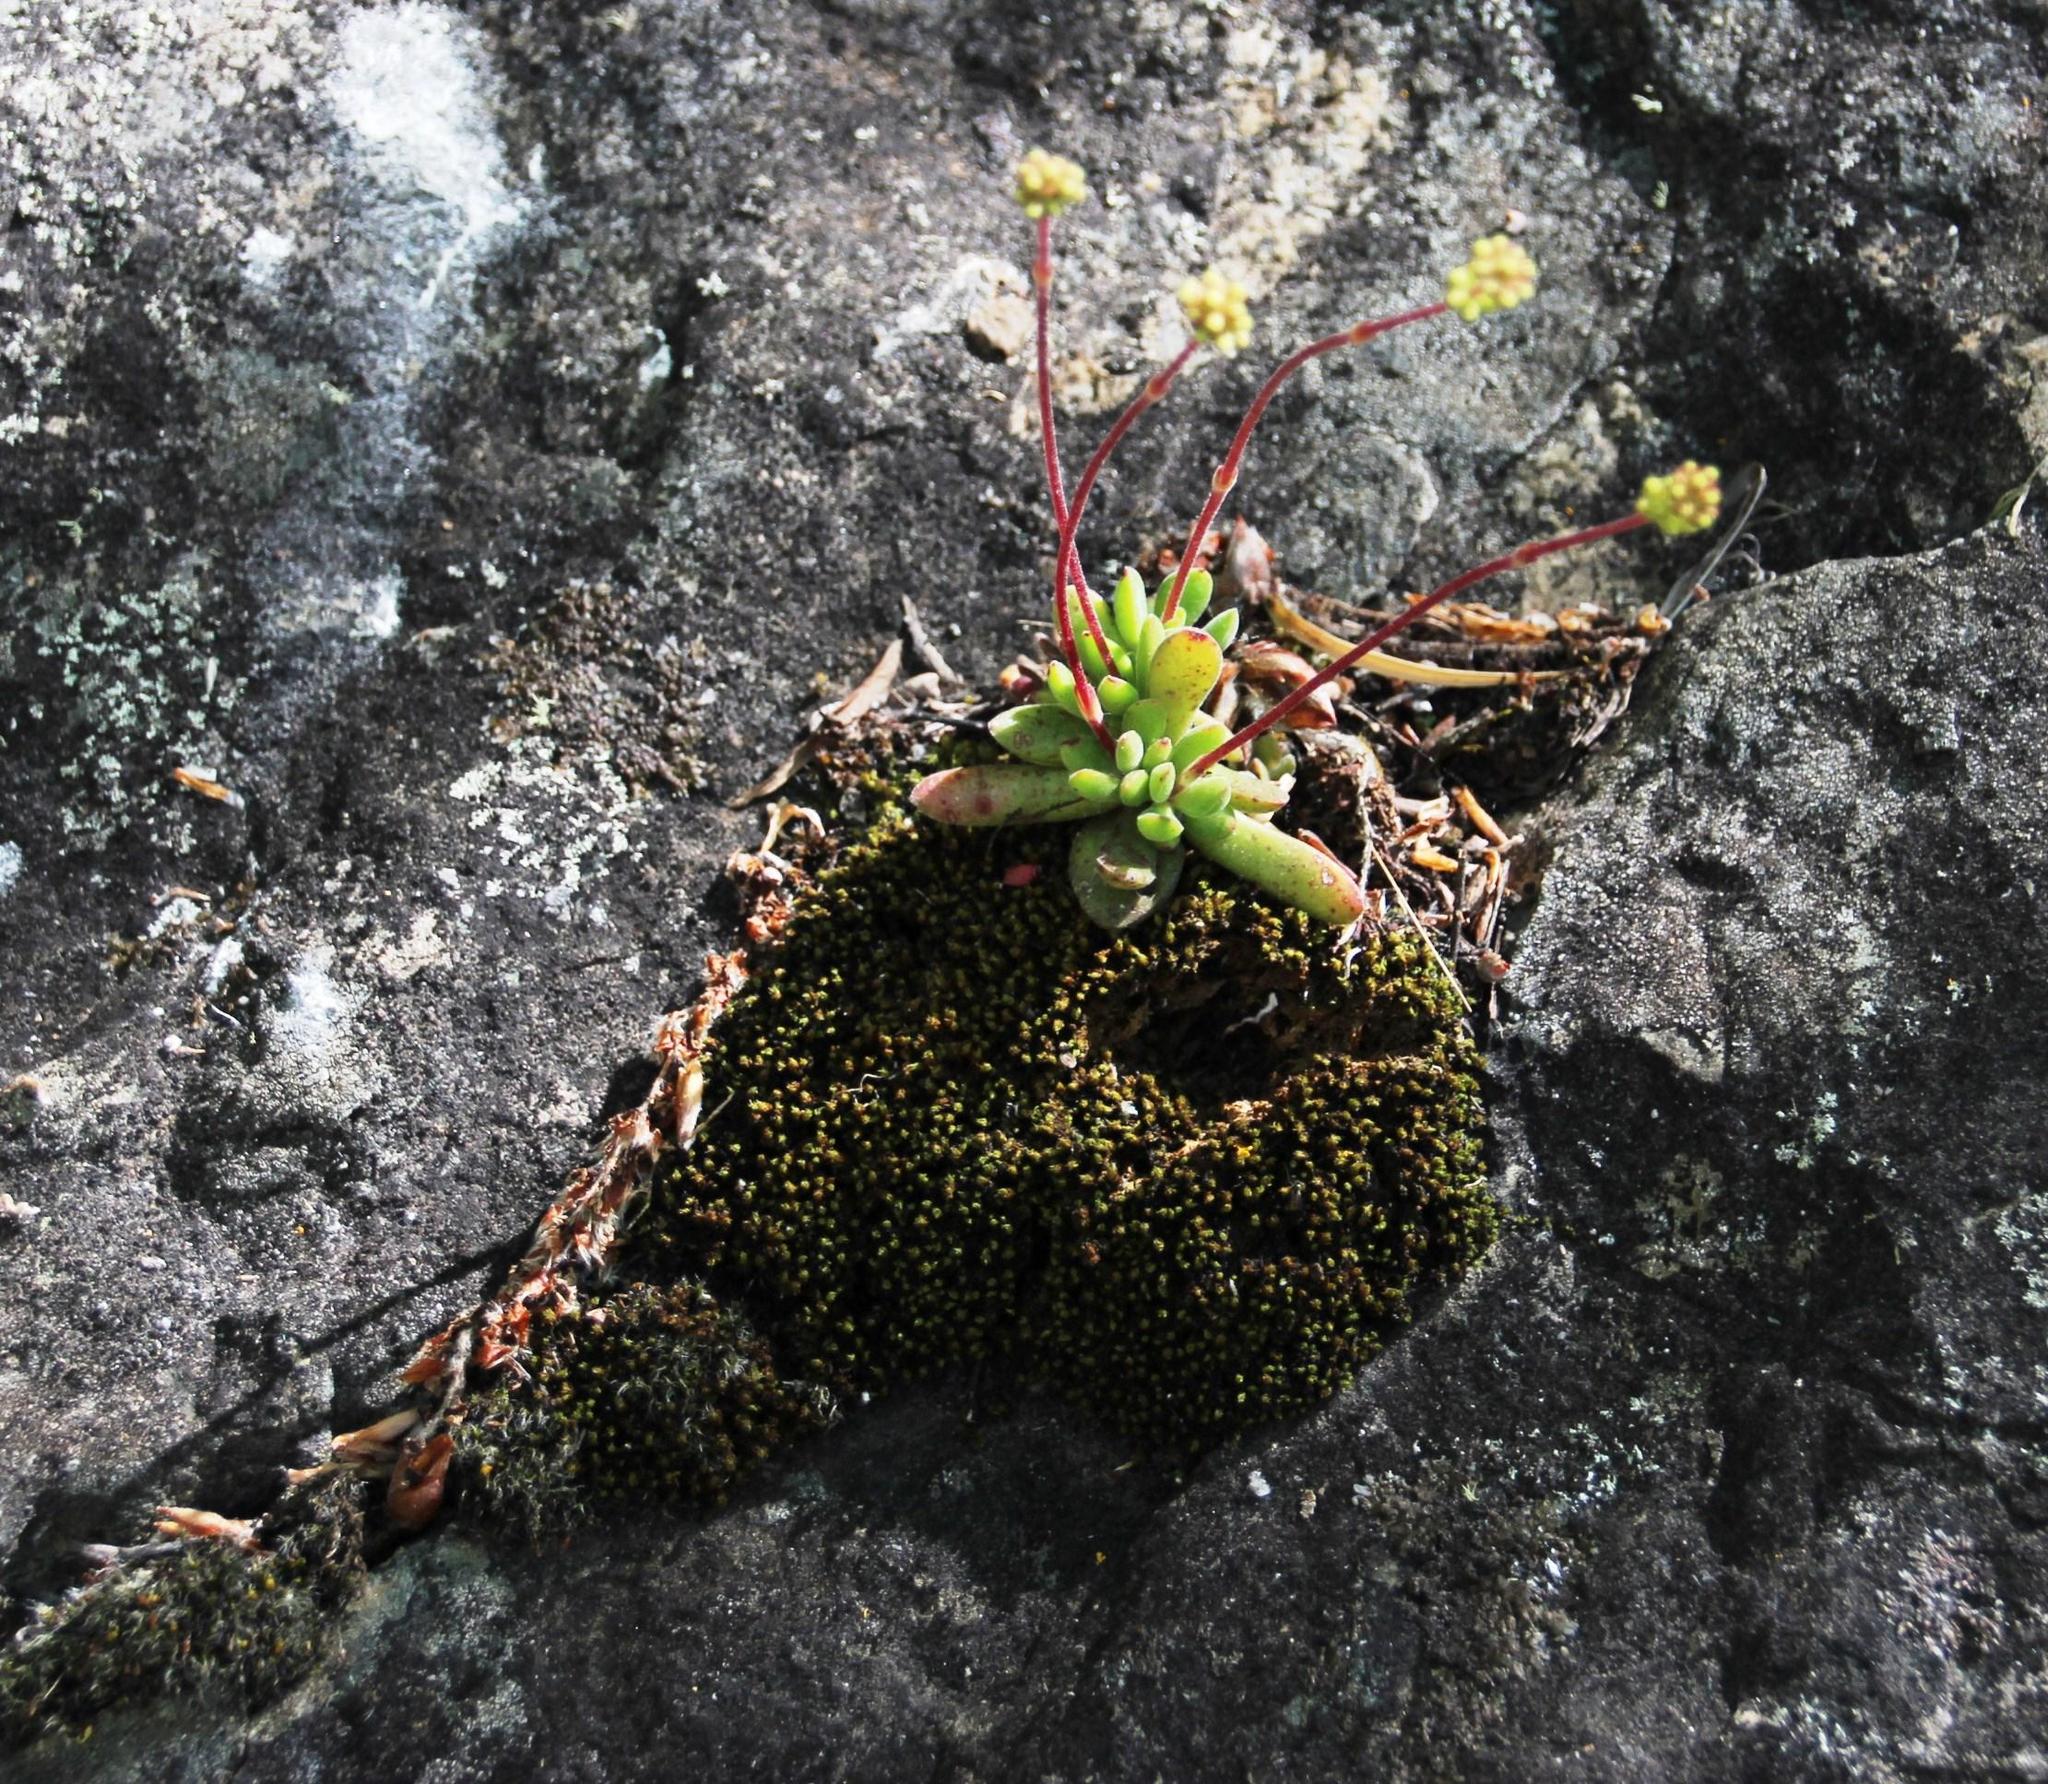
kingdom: Plantae
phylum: Tracheophyta
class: Magnoliopsida
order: Saxifragales
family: Crassulaceae
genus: Crassula
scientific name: Crassula pubescens
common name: Jersey pigmyweed
